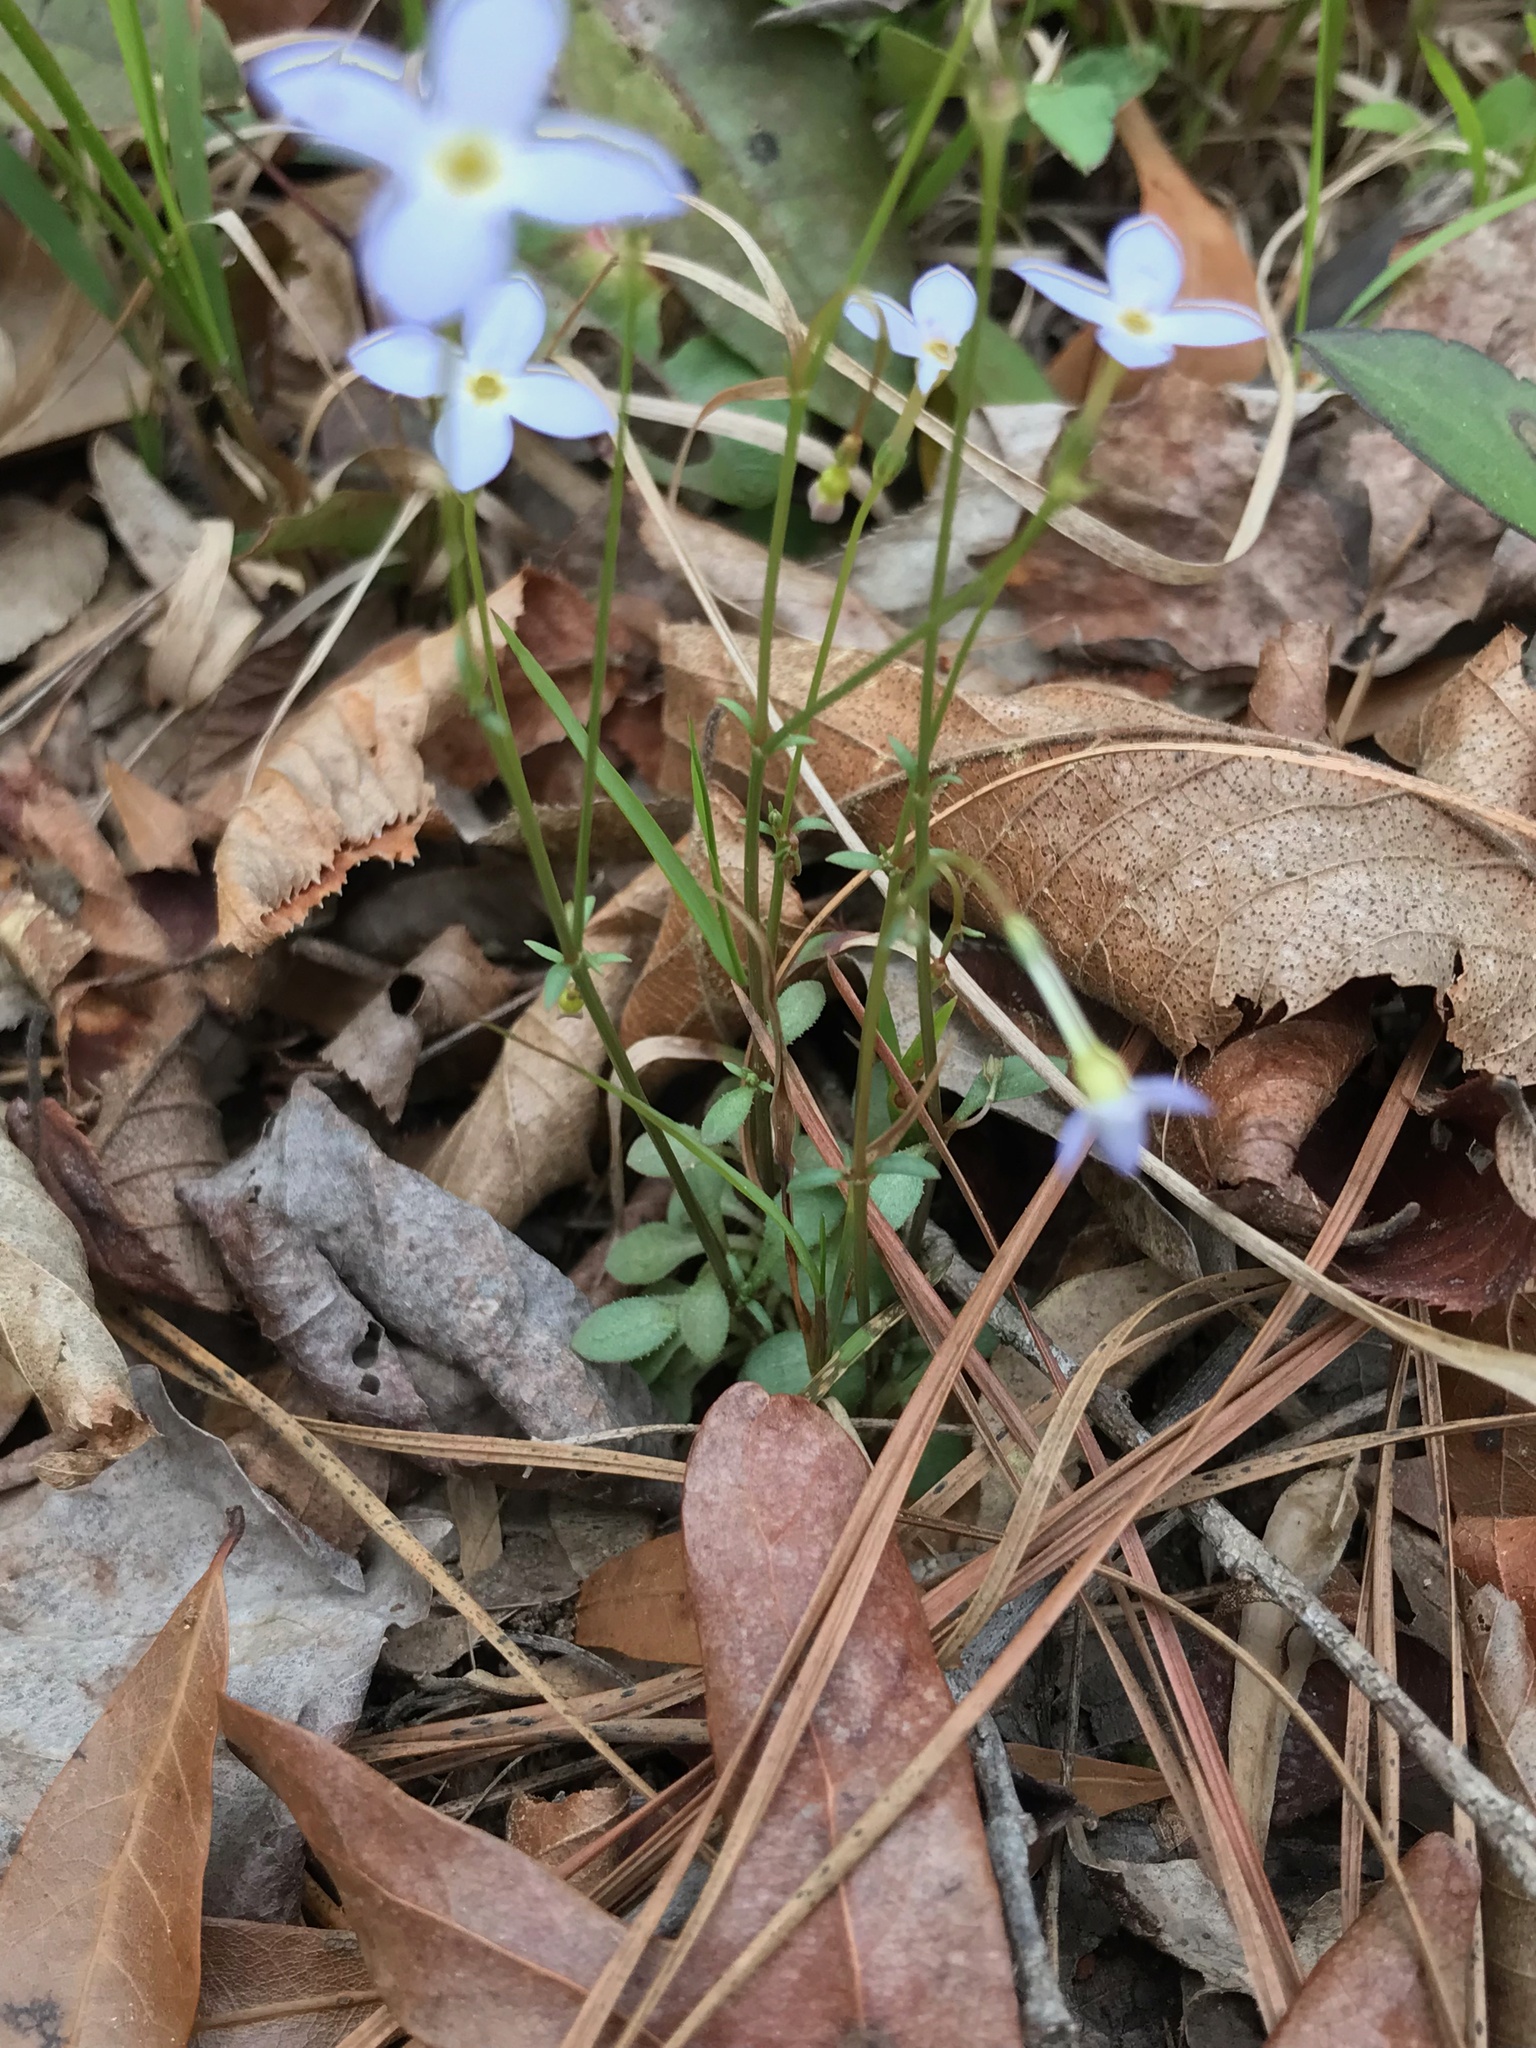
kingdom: Plantae
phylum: Tracheophyta
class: Magnoliopsida
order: Gentianales
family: Rubiaceae
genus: Houstonia
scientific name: Houstonia caerulea
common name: Bluets
